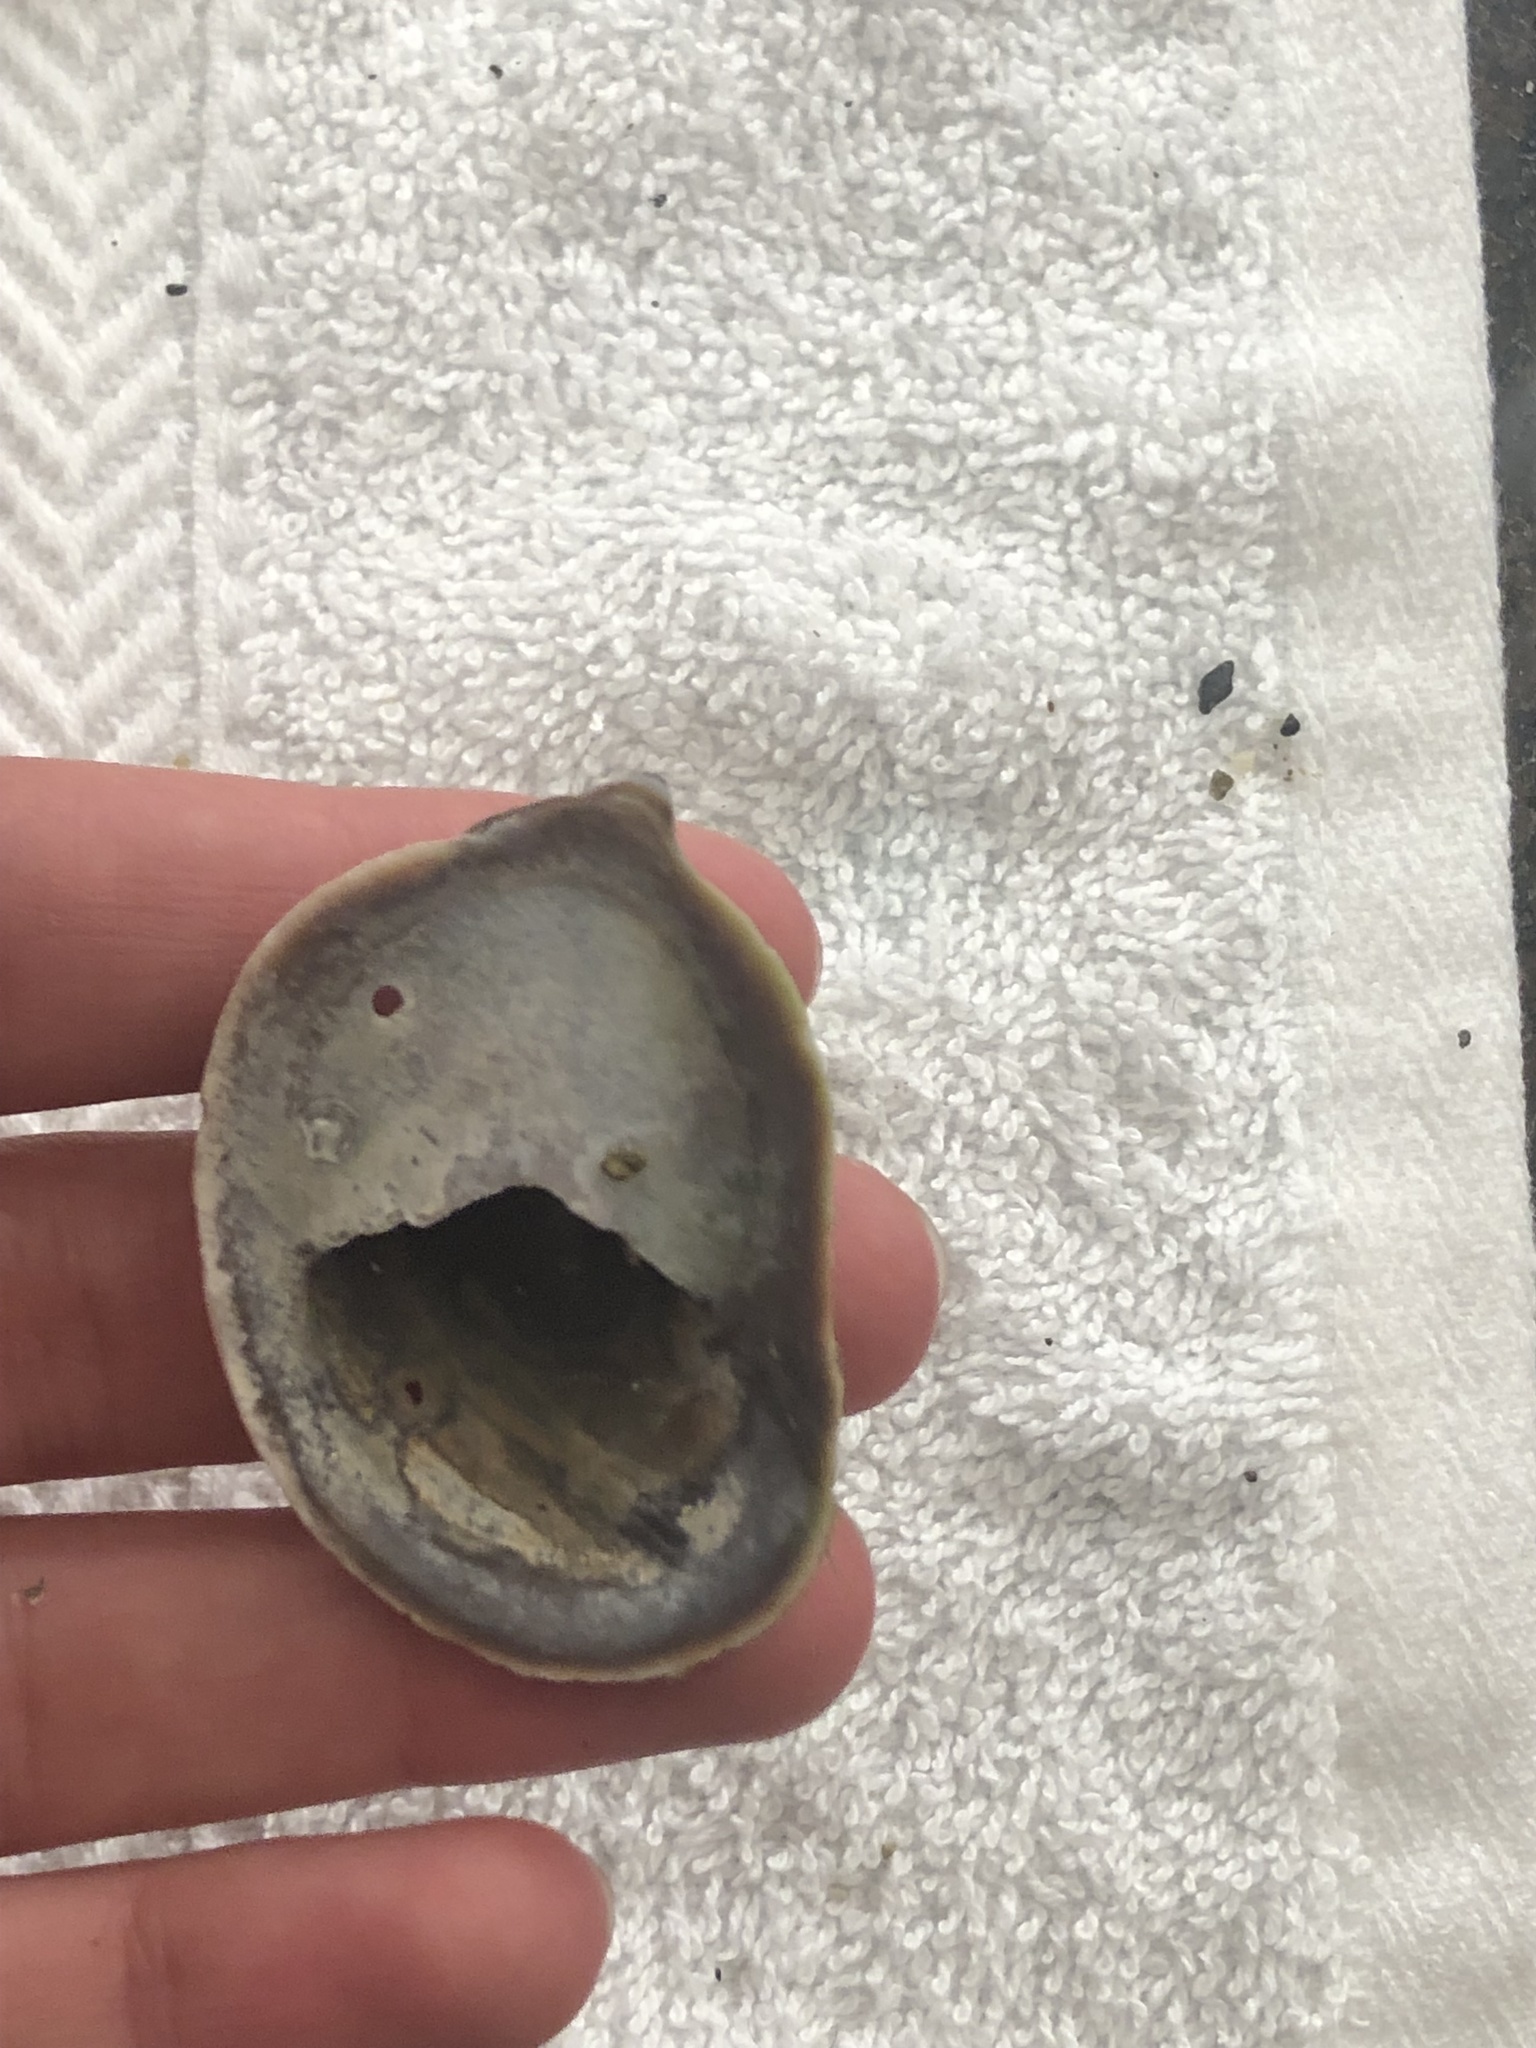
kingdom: Animalia
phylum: Mollusca
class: Gastropoda
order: Littorinimorpha
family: Calyptraeidae
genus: Crepidula
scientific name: Crepidula onyx
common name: Onyx slippersnail
